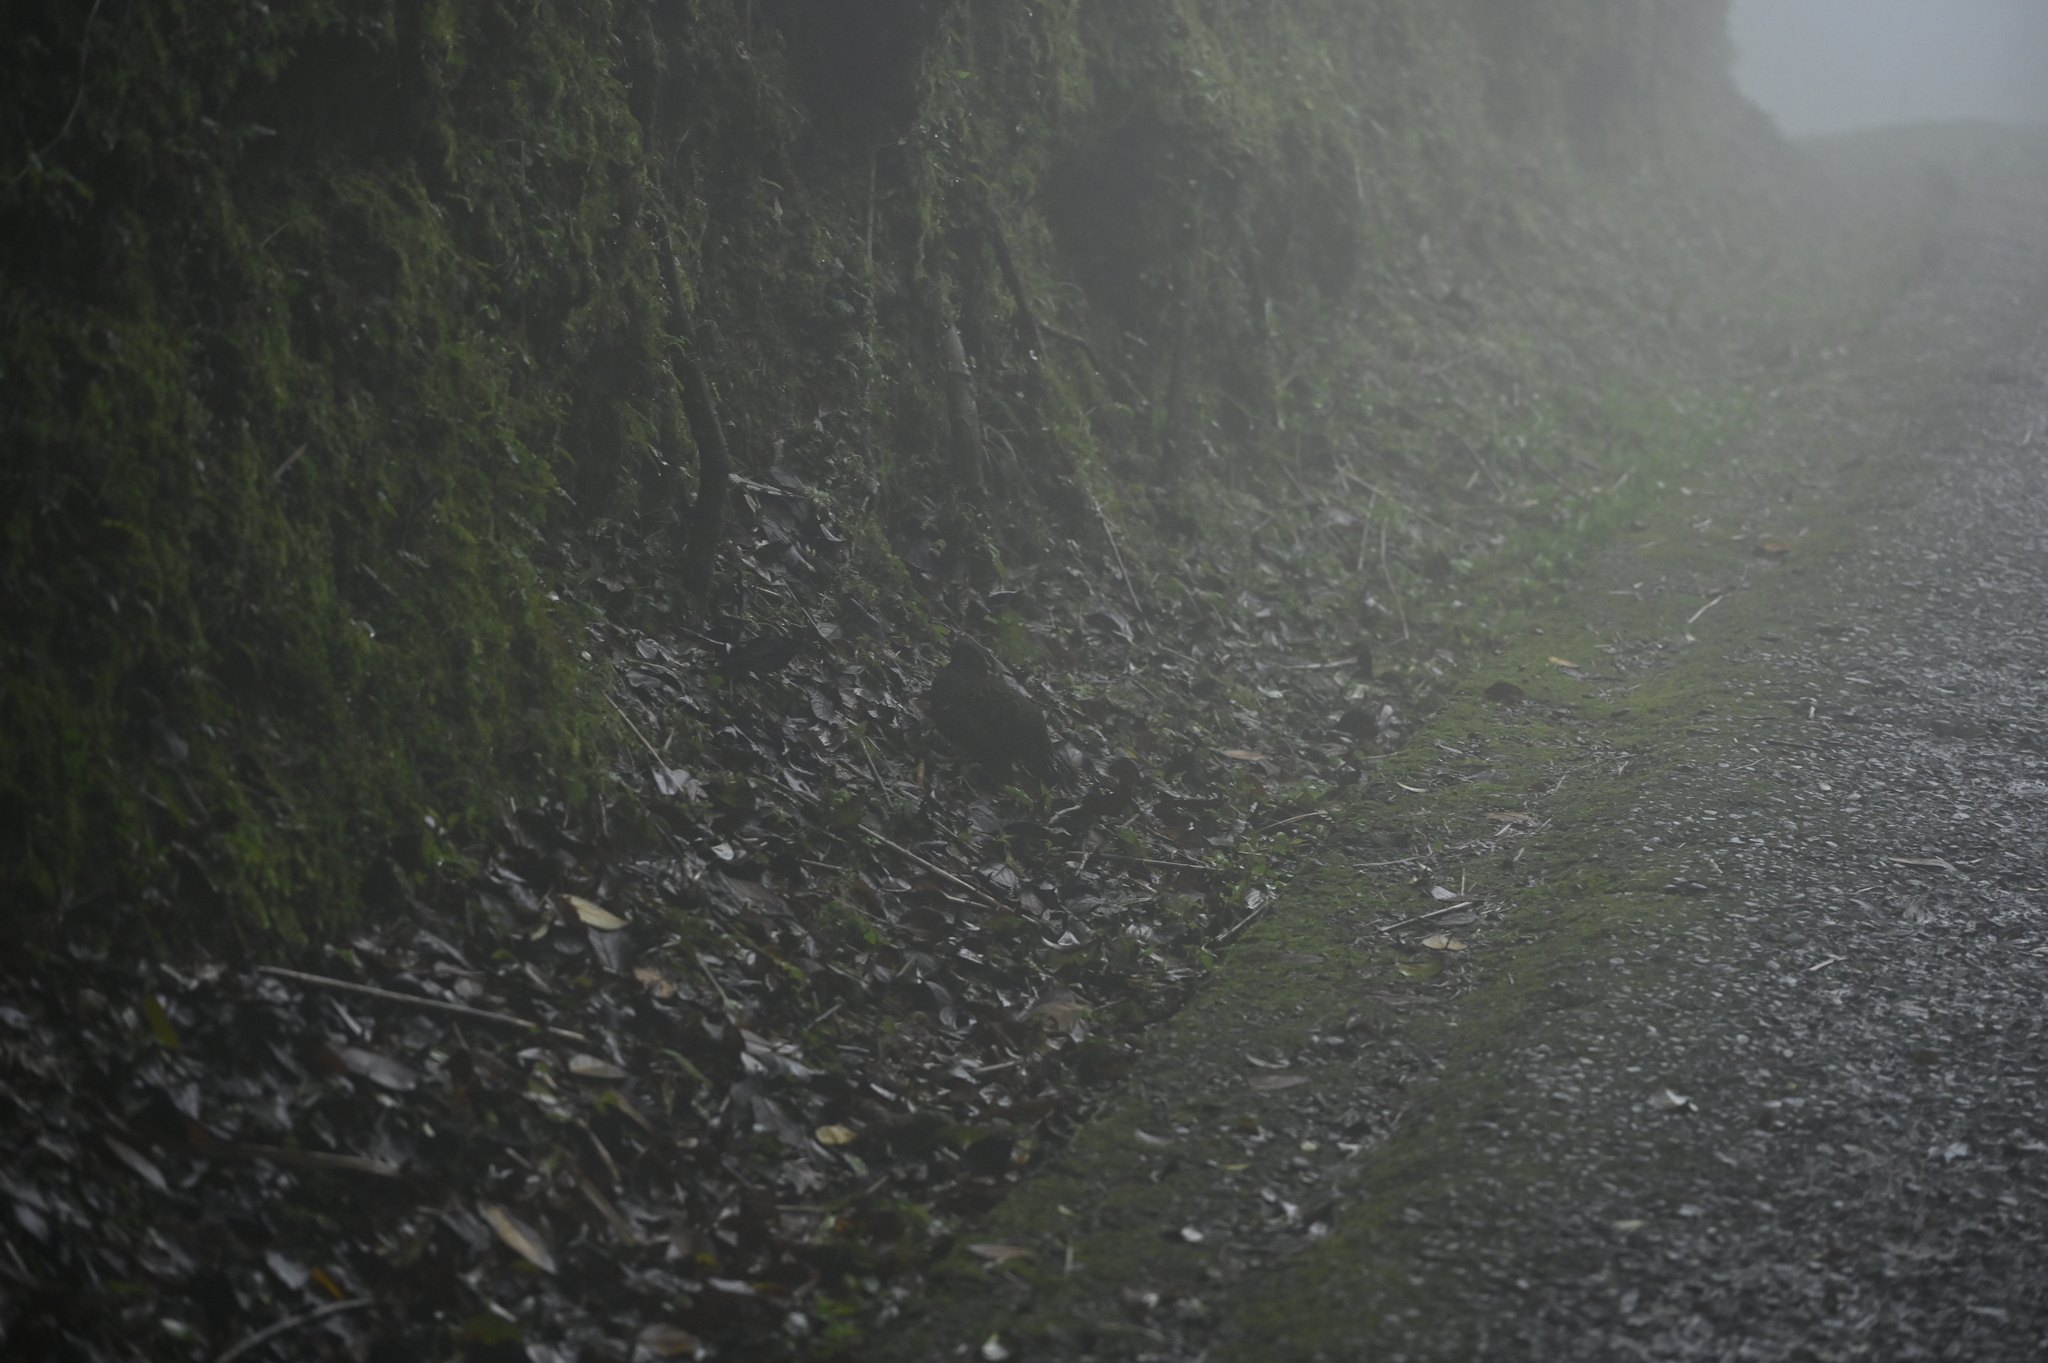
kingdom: Animalia
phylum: Chordata
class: Aves
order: Galliformes
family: Phasianidae
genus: Bambusicola
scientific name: Bambusicola sonorivox
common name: Taiwan bamboo-partridge
